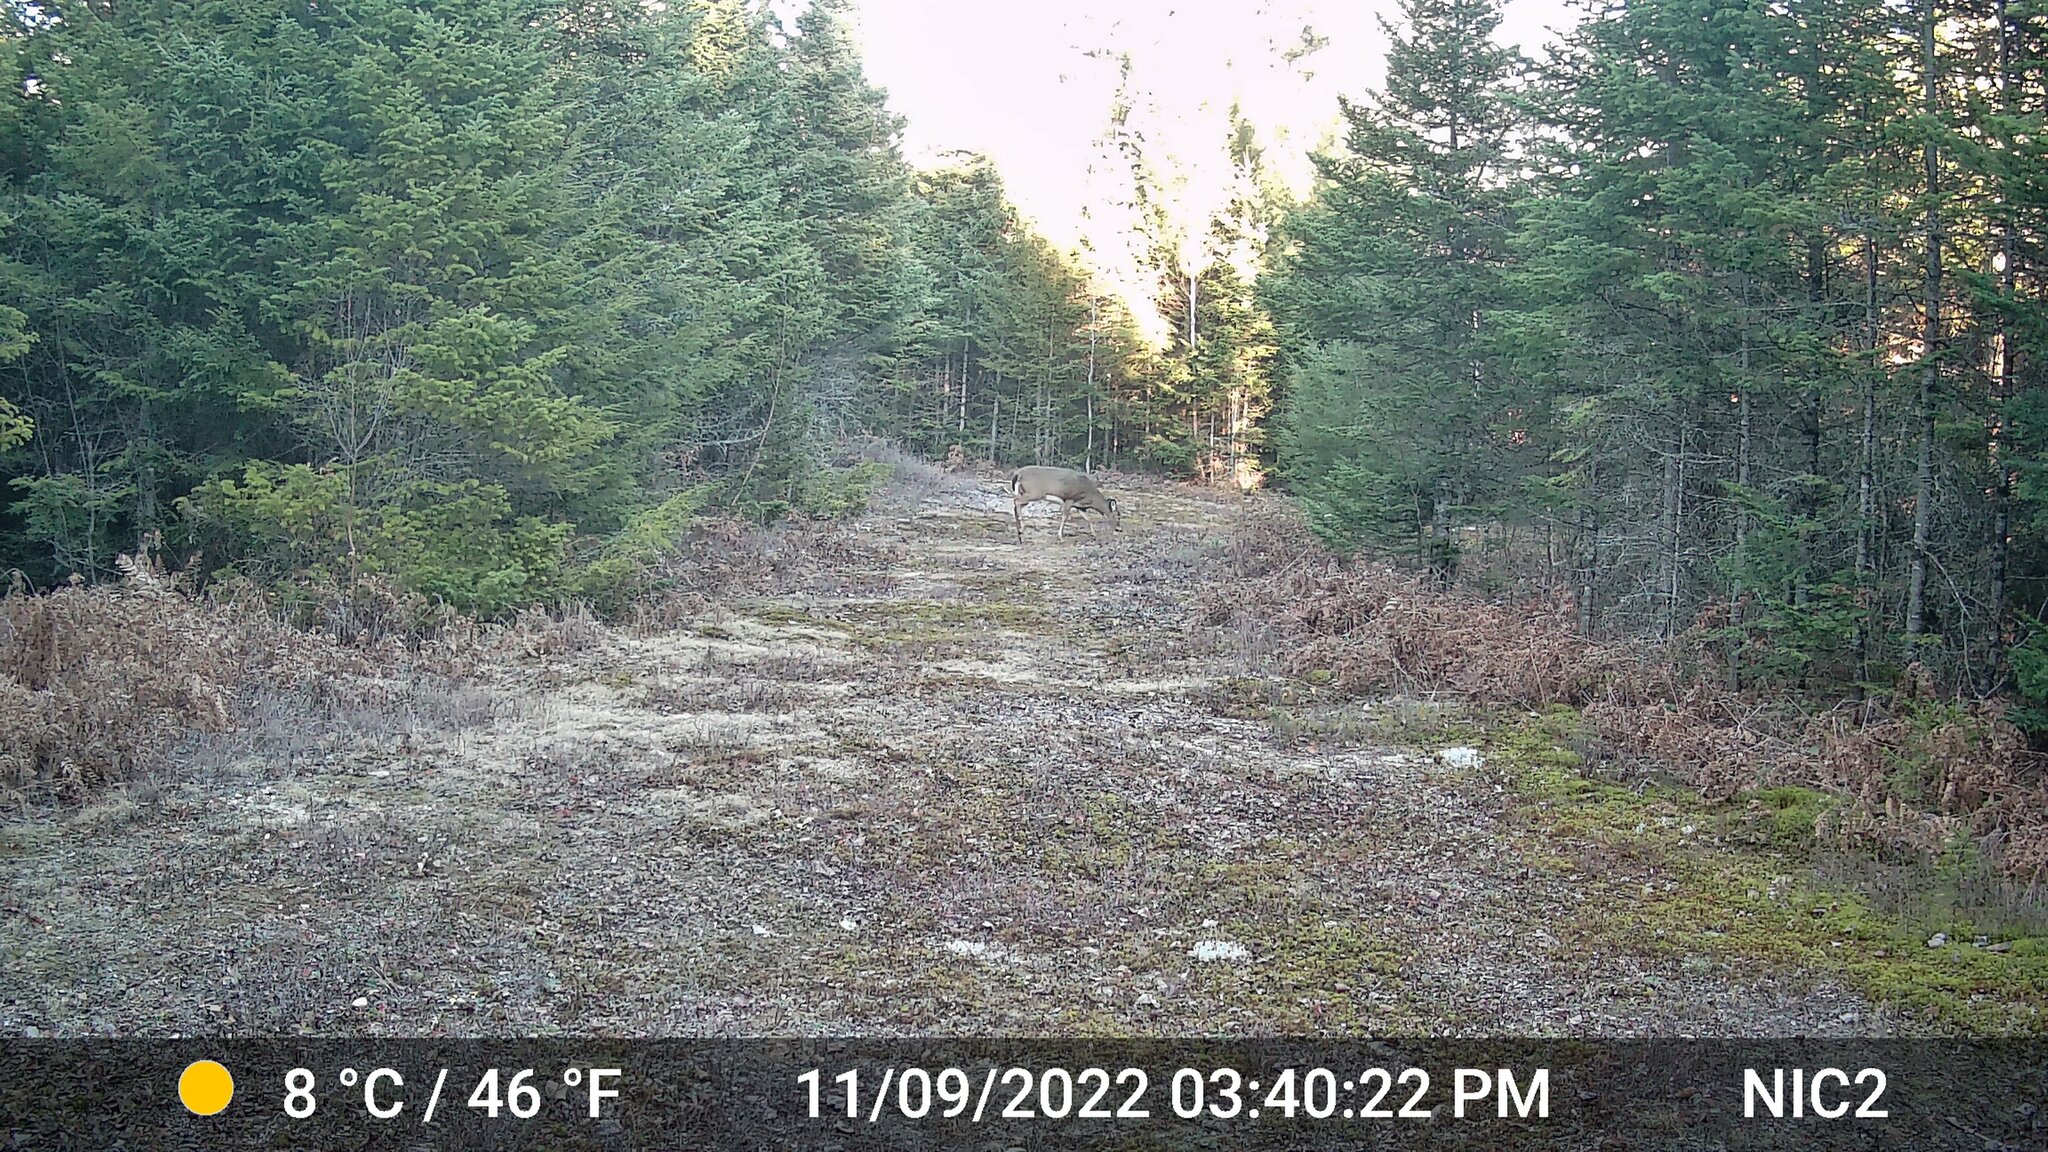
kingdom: Animalia
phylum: Chordata
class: Mammalia
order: Artiodactyla
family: Cervidae
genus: Odocoileus
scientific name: Odocoileus virginianus
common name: White-tailed deer
